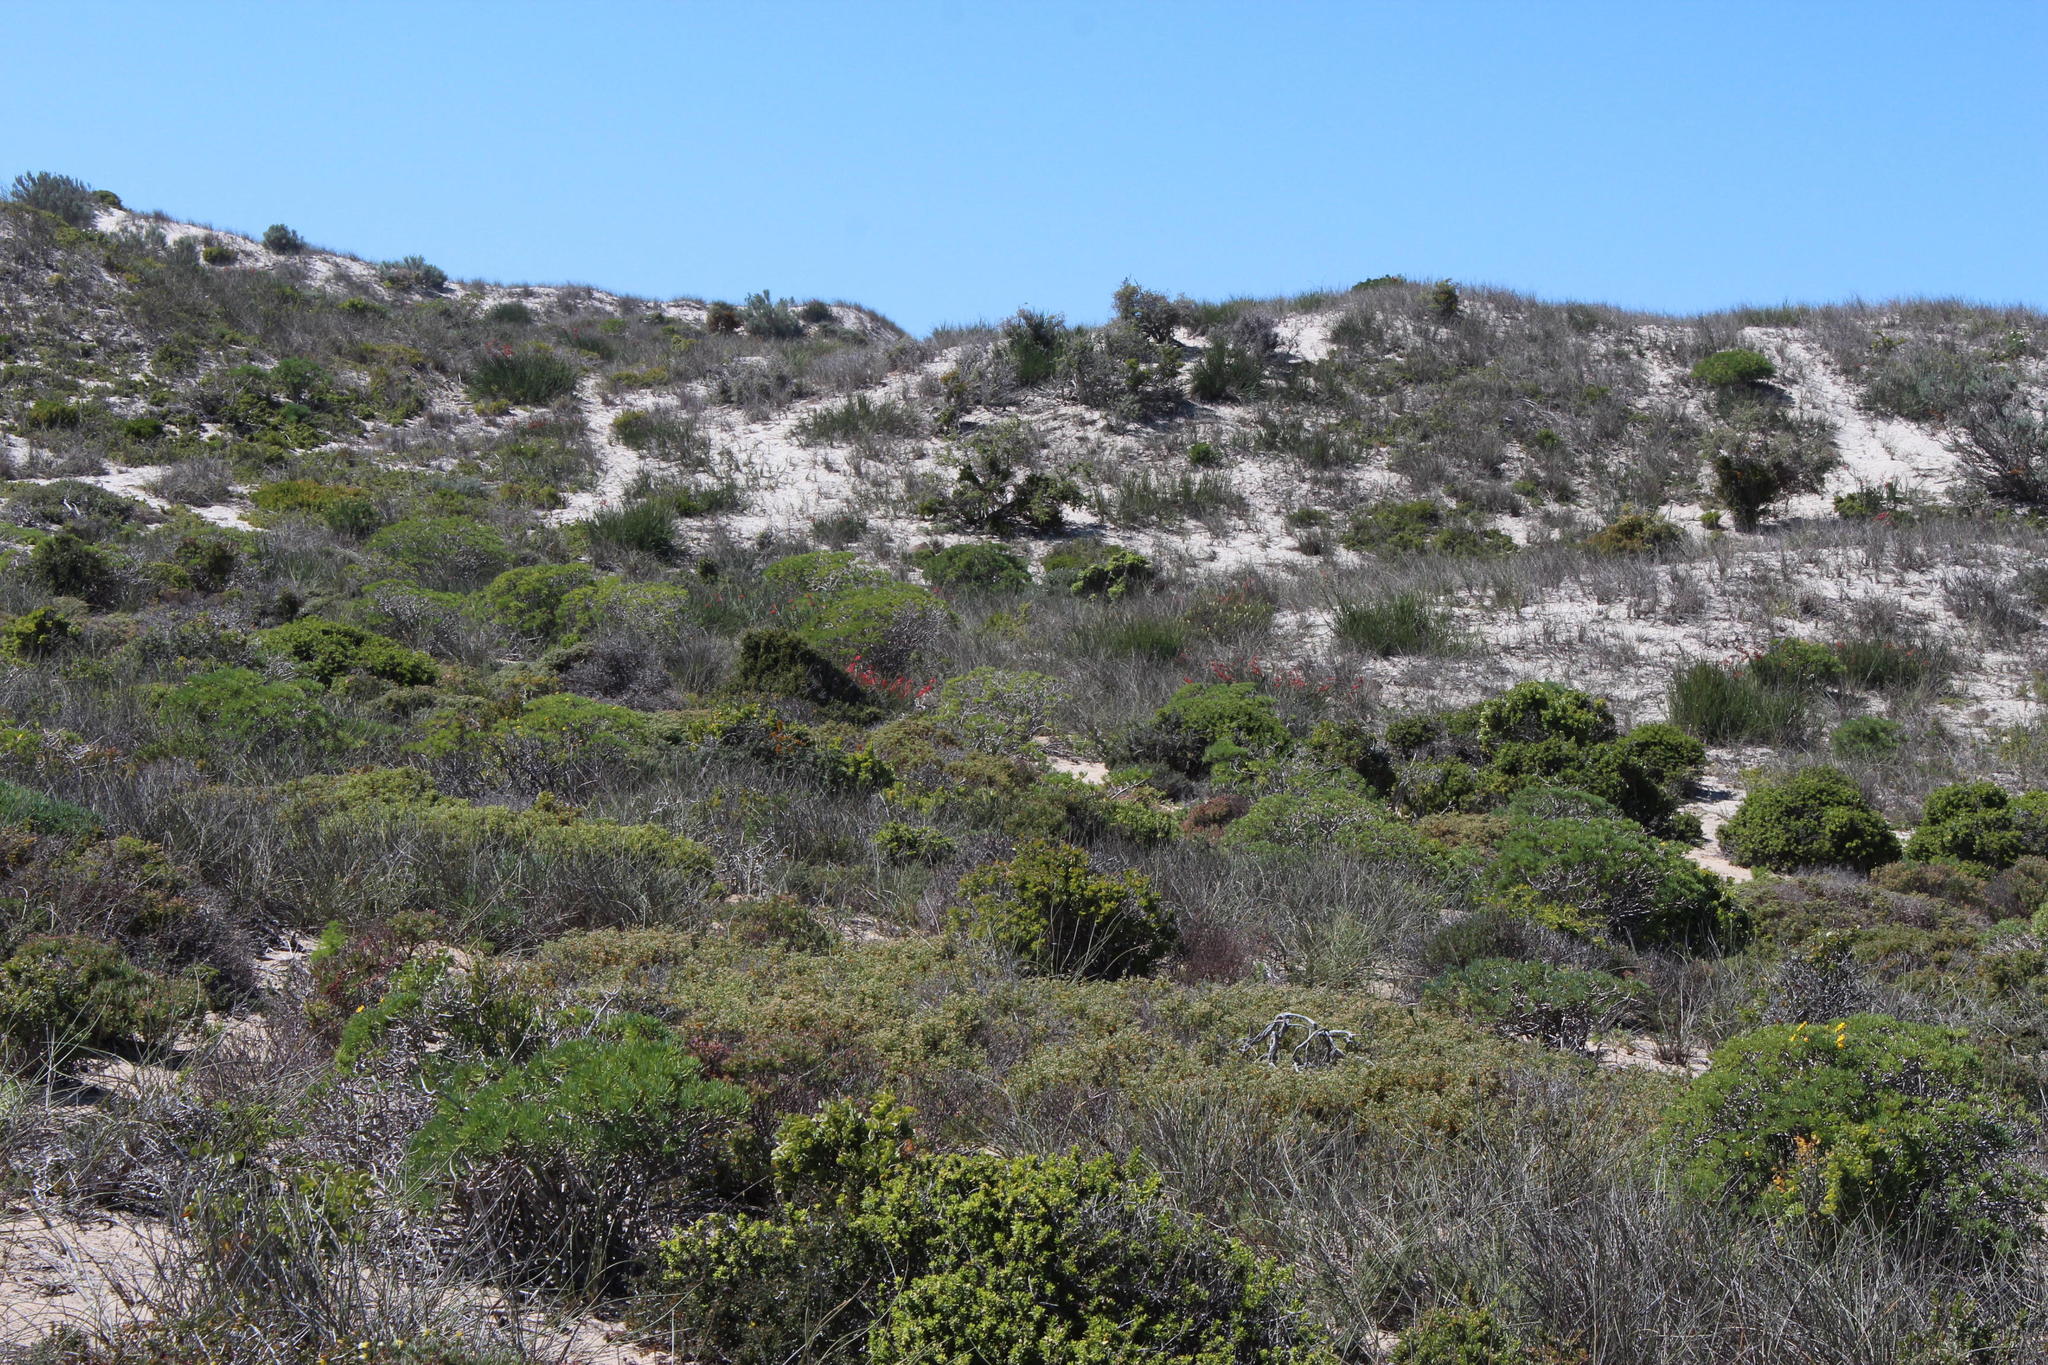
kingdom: Plantae
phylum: Tracheophyta
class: Liliopsida
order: Asparagales
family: Iridaceae
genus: Babiana
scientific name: Babiana hirsuta
